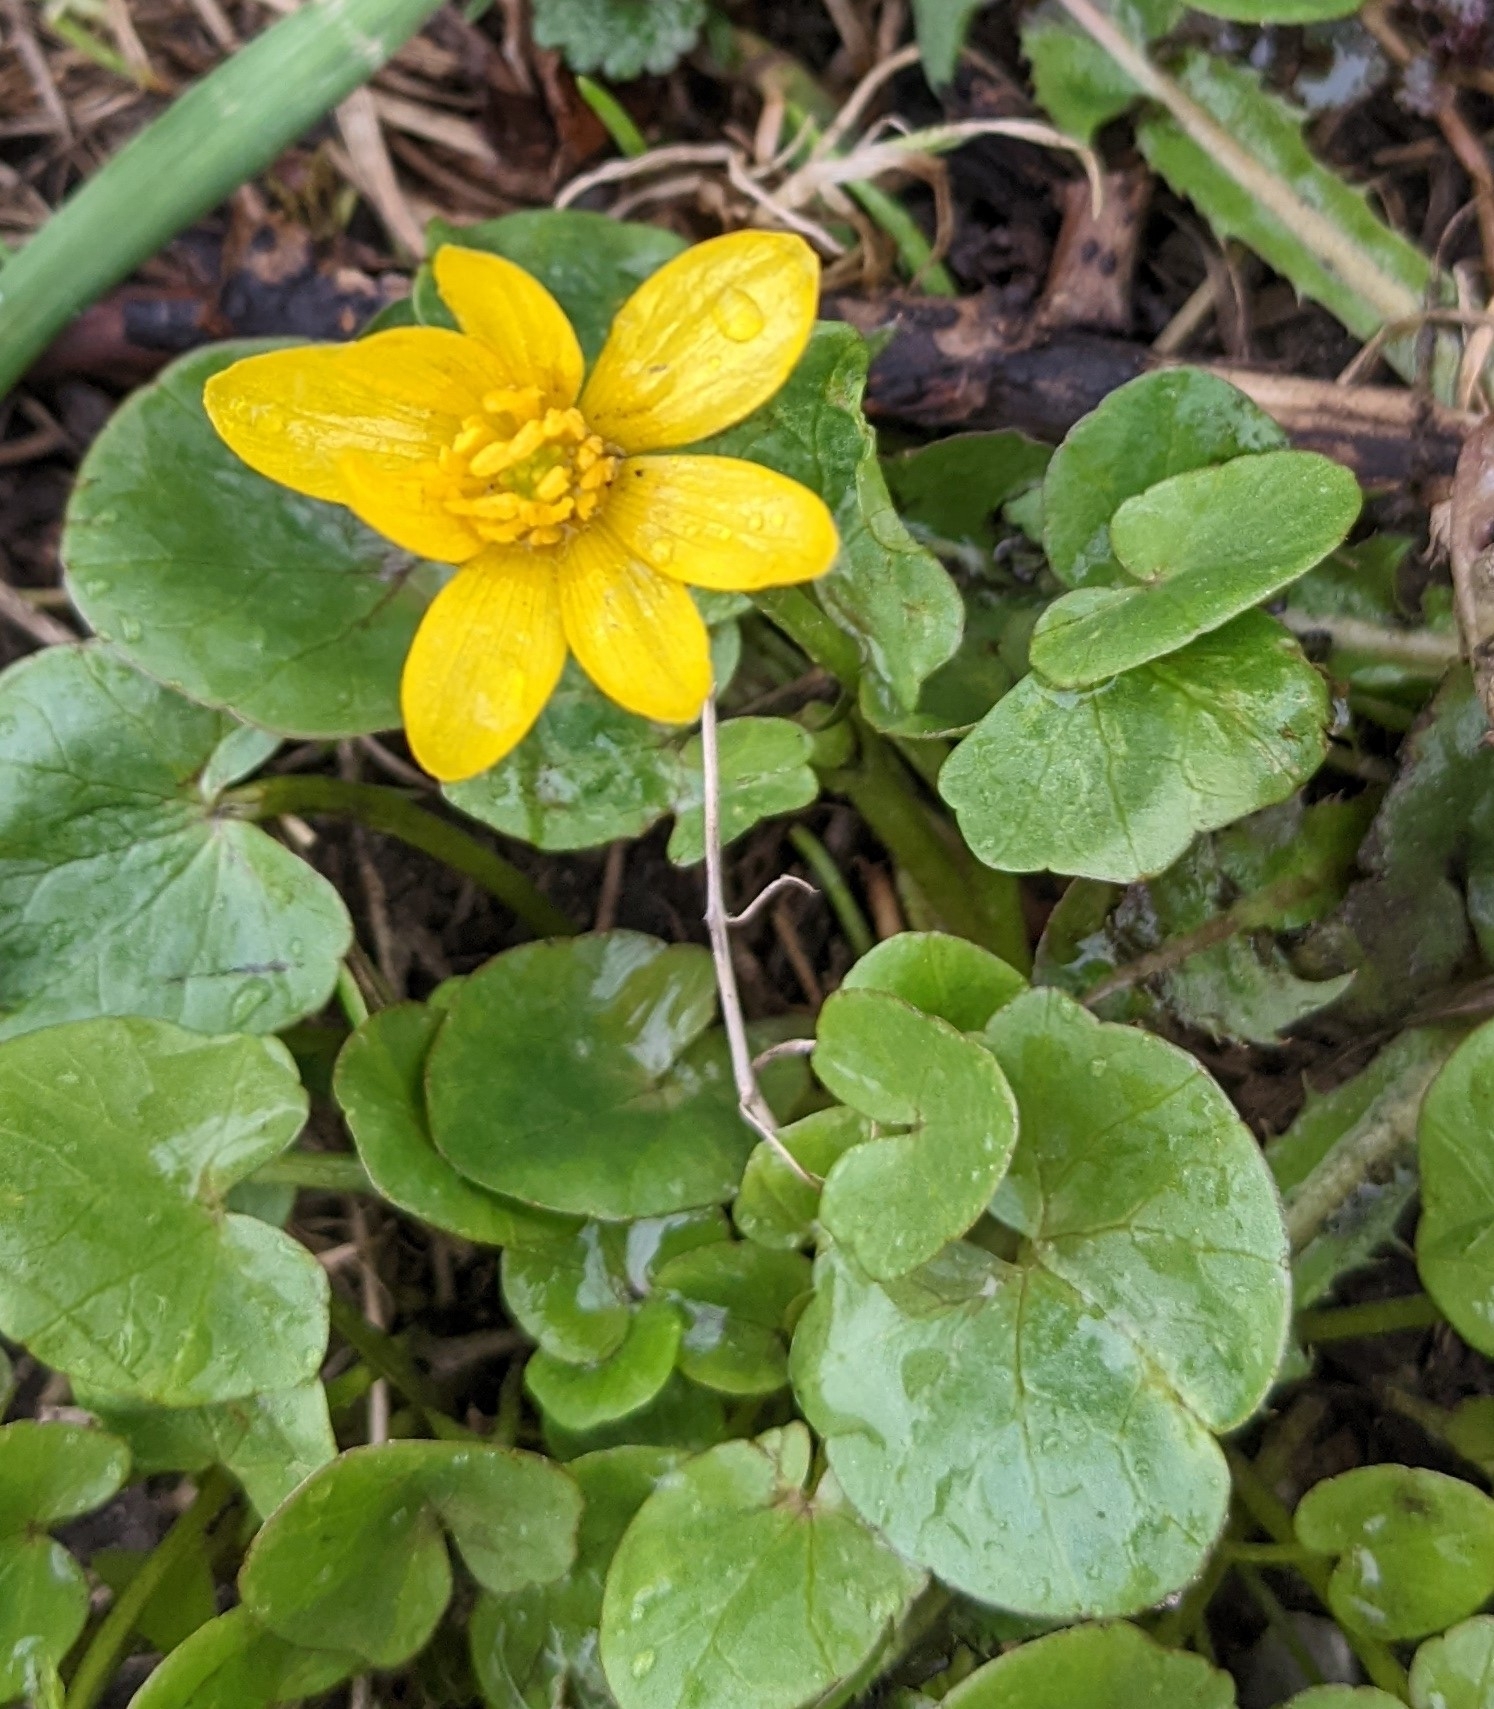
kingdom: Plantae
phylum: Tracheophyta
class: Magnoliopsida
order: Ranunculales
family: Ranunculaceae
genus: Ficaria
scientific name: Ficaria verna
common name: Lesser celandine
